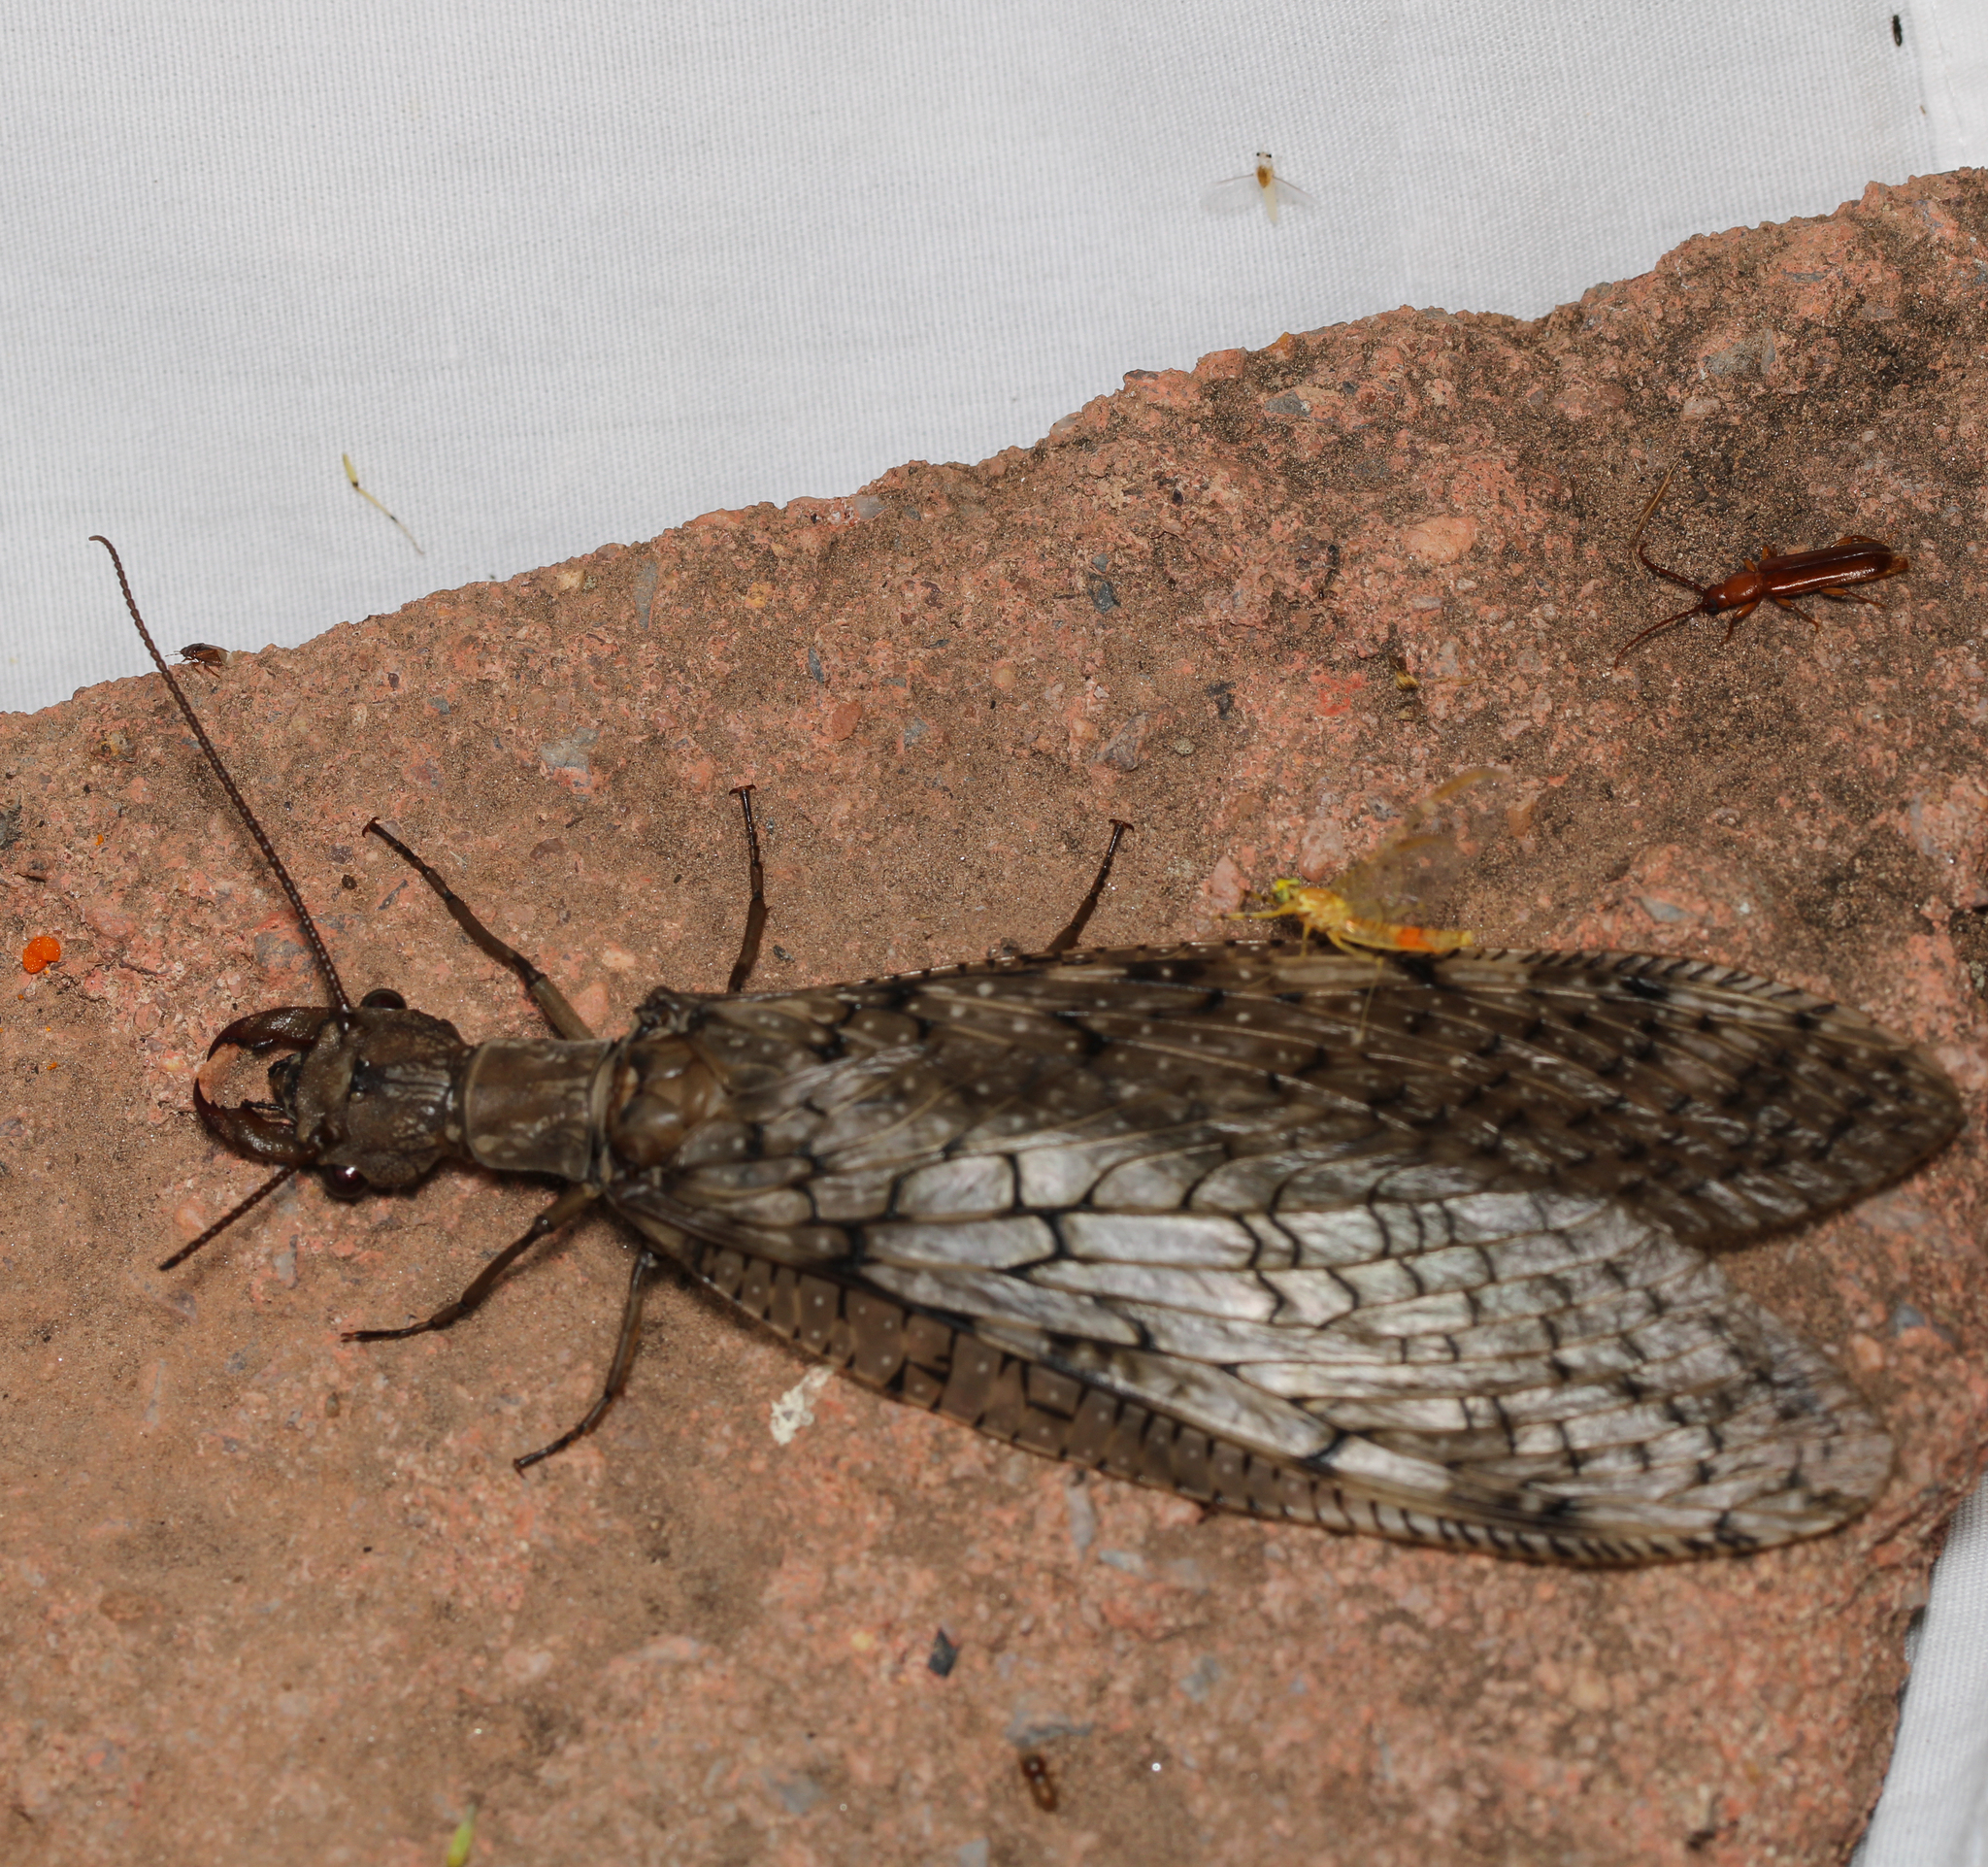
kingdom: Animalia
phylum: Arthropoda
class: Insecta
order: Megaloptera
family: Corydalidae
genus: Corydalus
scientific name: Corydalus cornutus
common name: Dobsonfly
